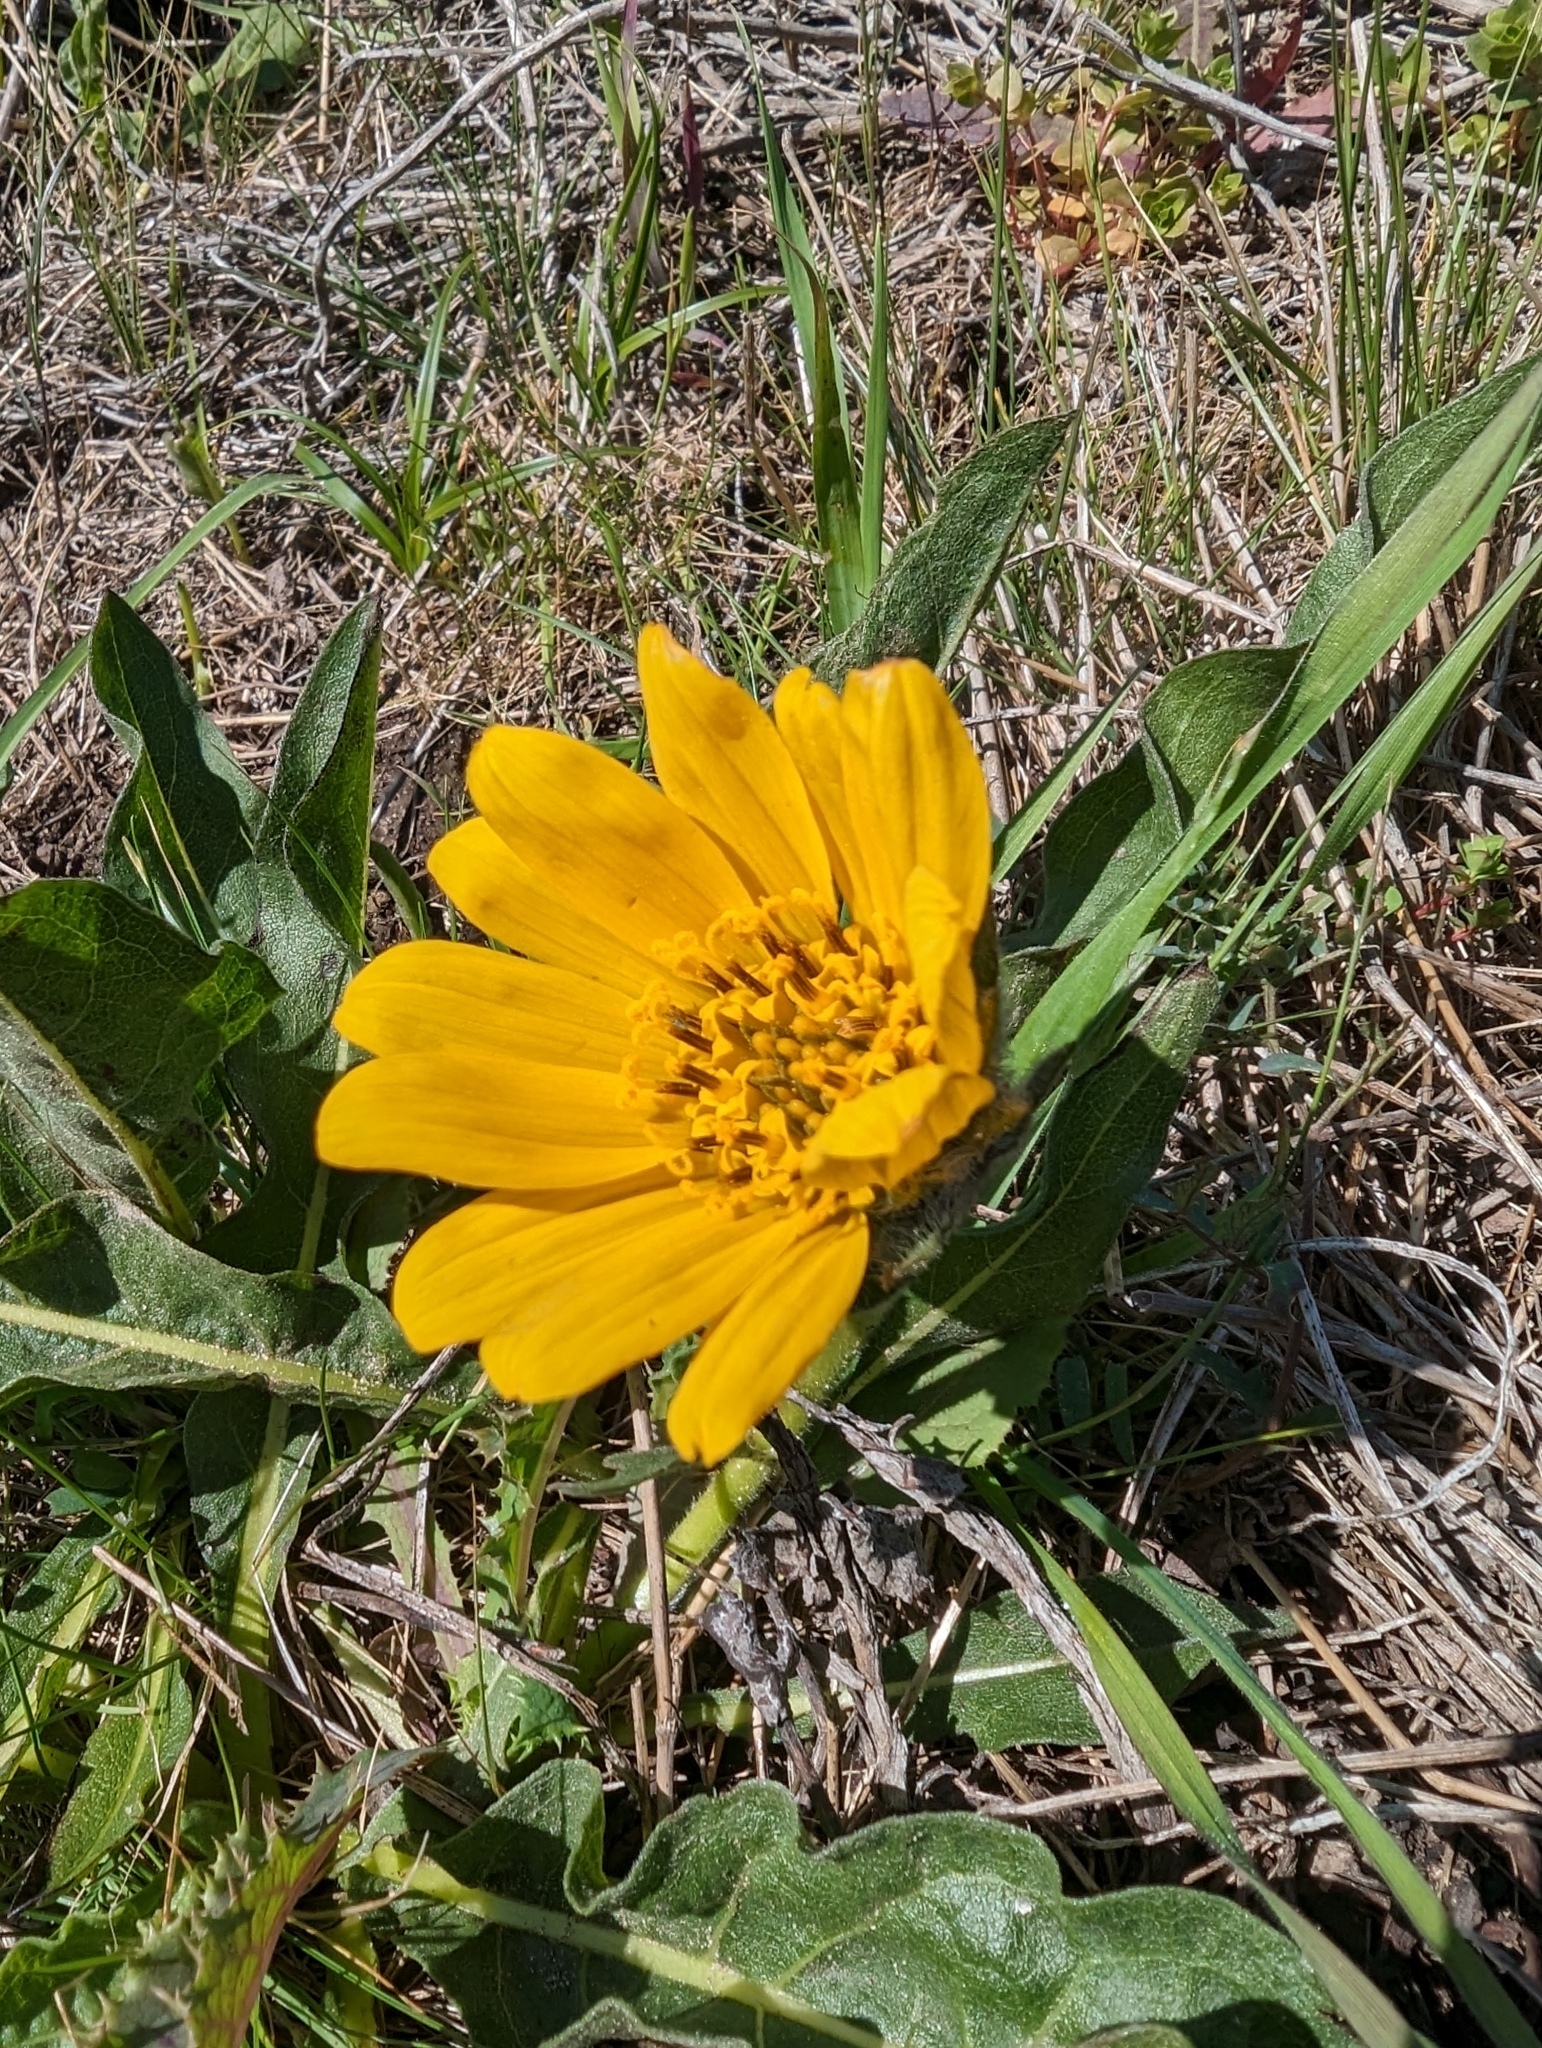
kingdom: Plantae
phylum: Tracheophyta
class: Magnoliopsida
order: Asterales
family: Asteraceae
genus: Wyethia
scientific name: Wyethia angustifolia
